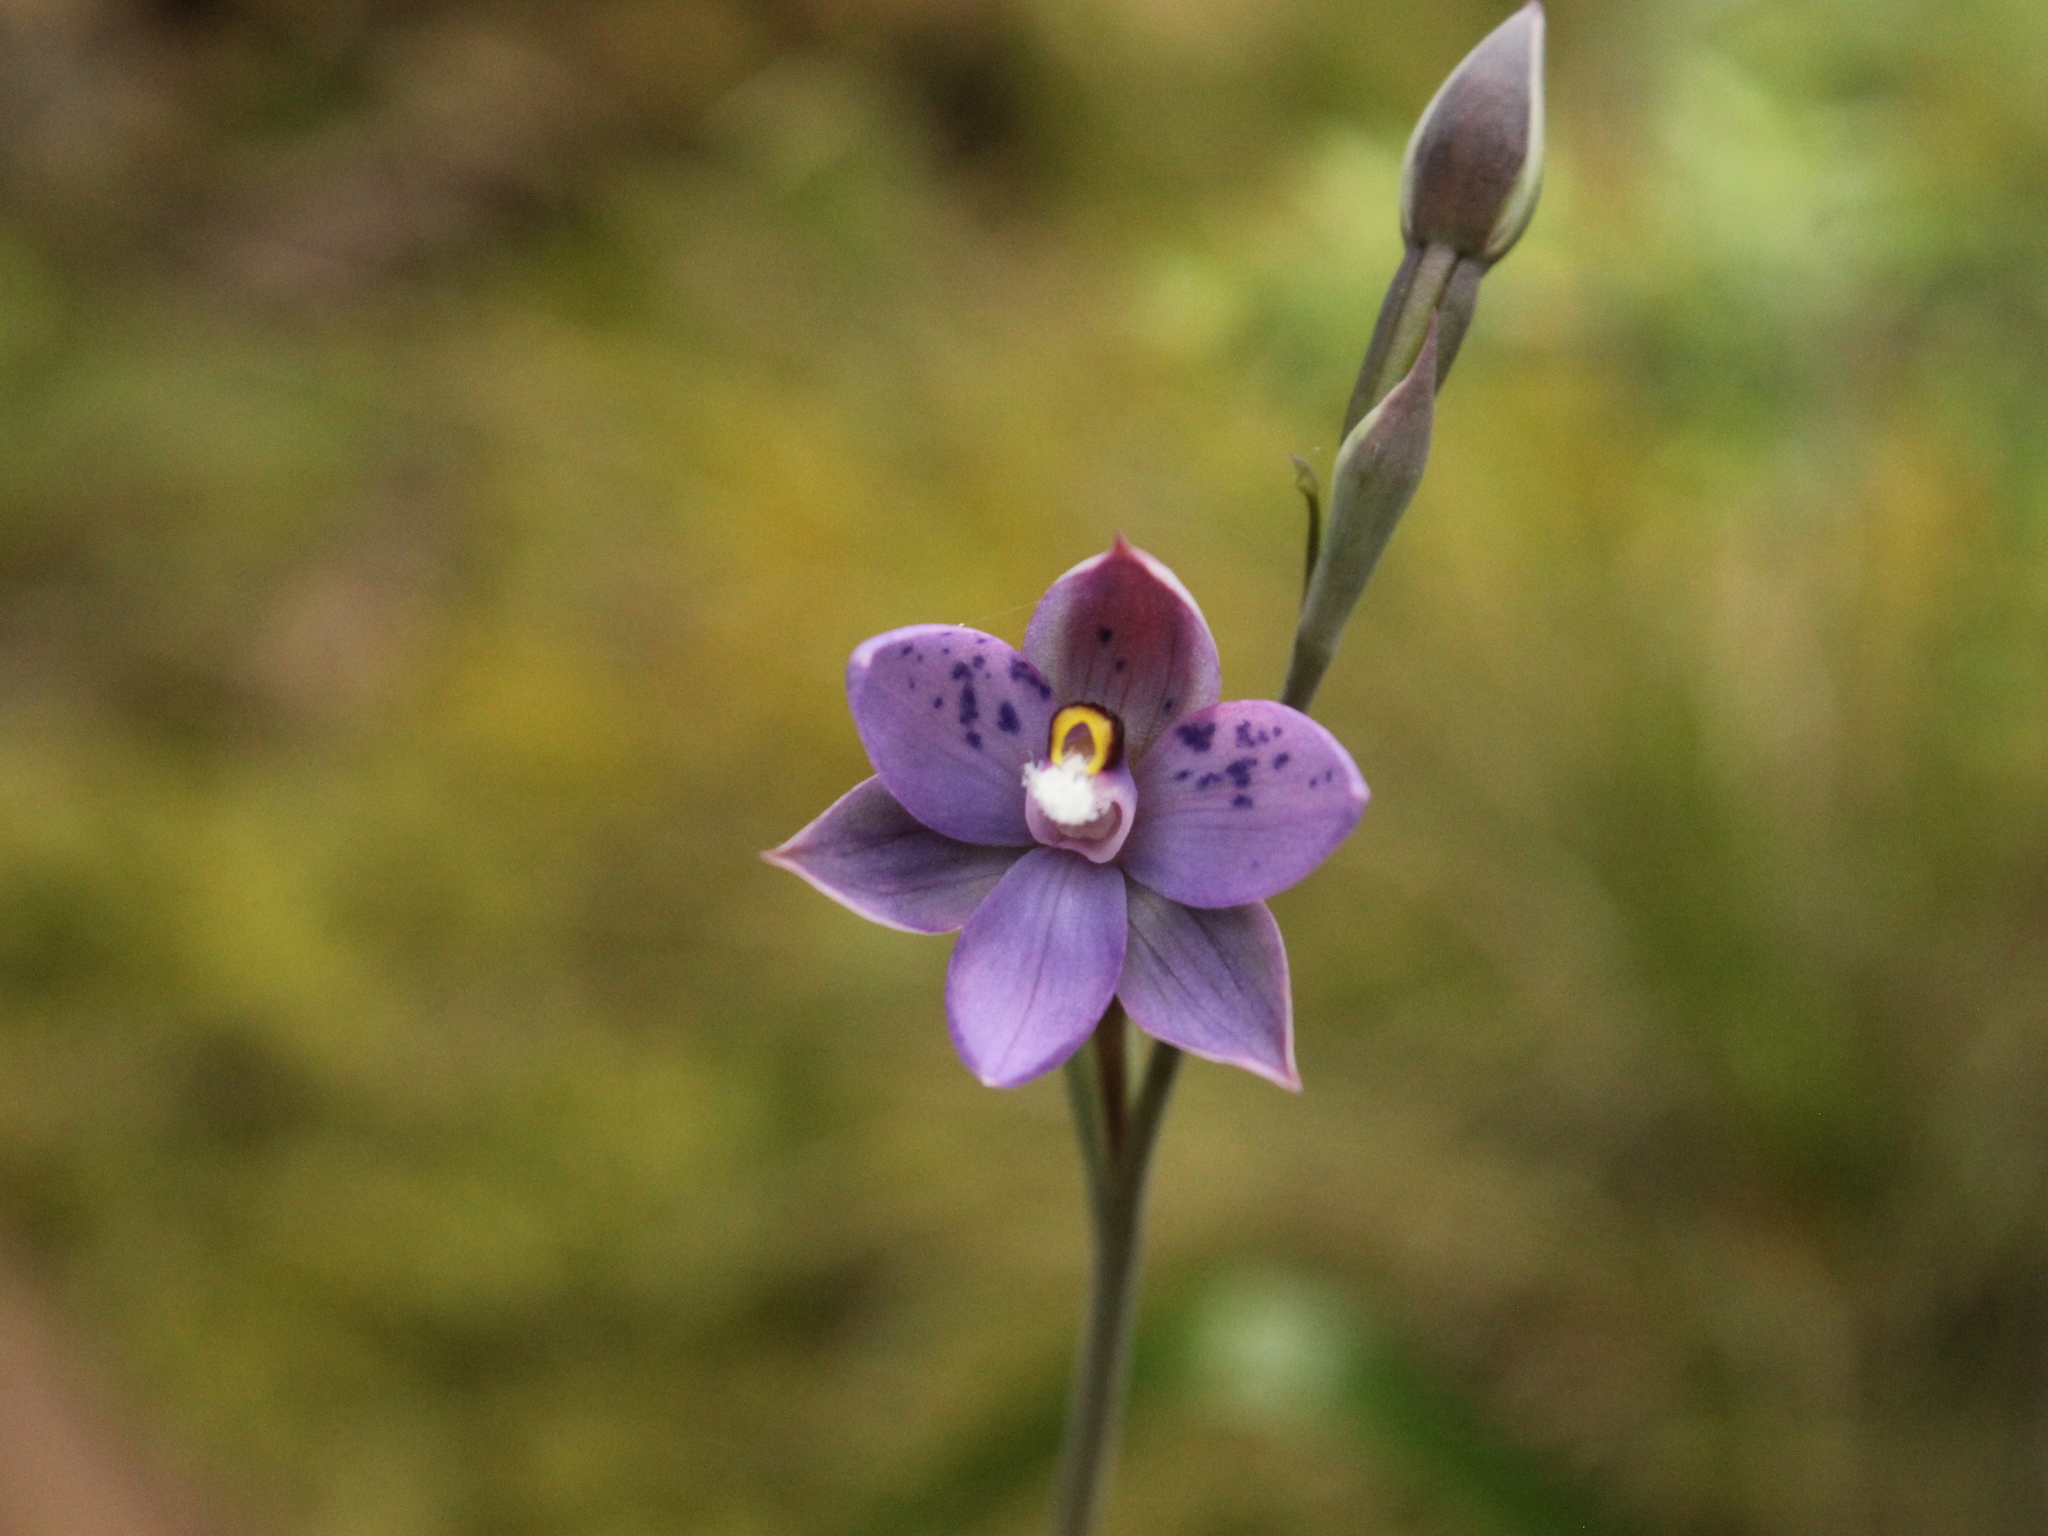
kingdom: Plantae
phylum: Tracheophyta
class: Liliopsida
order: Asparagales
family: Orchidaceae
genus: Thelymitra
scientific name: Thelymitra nervosa
